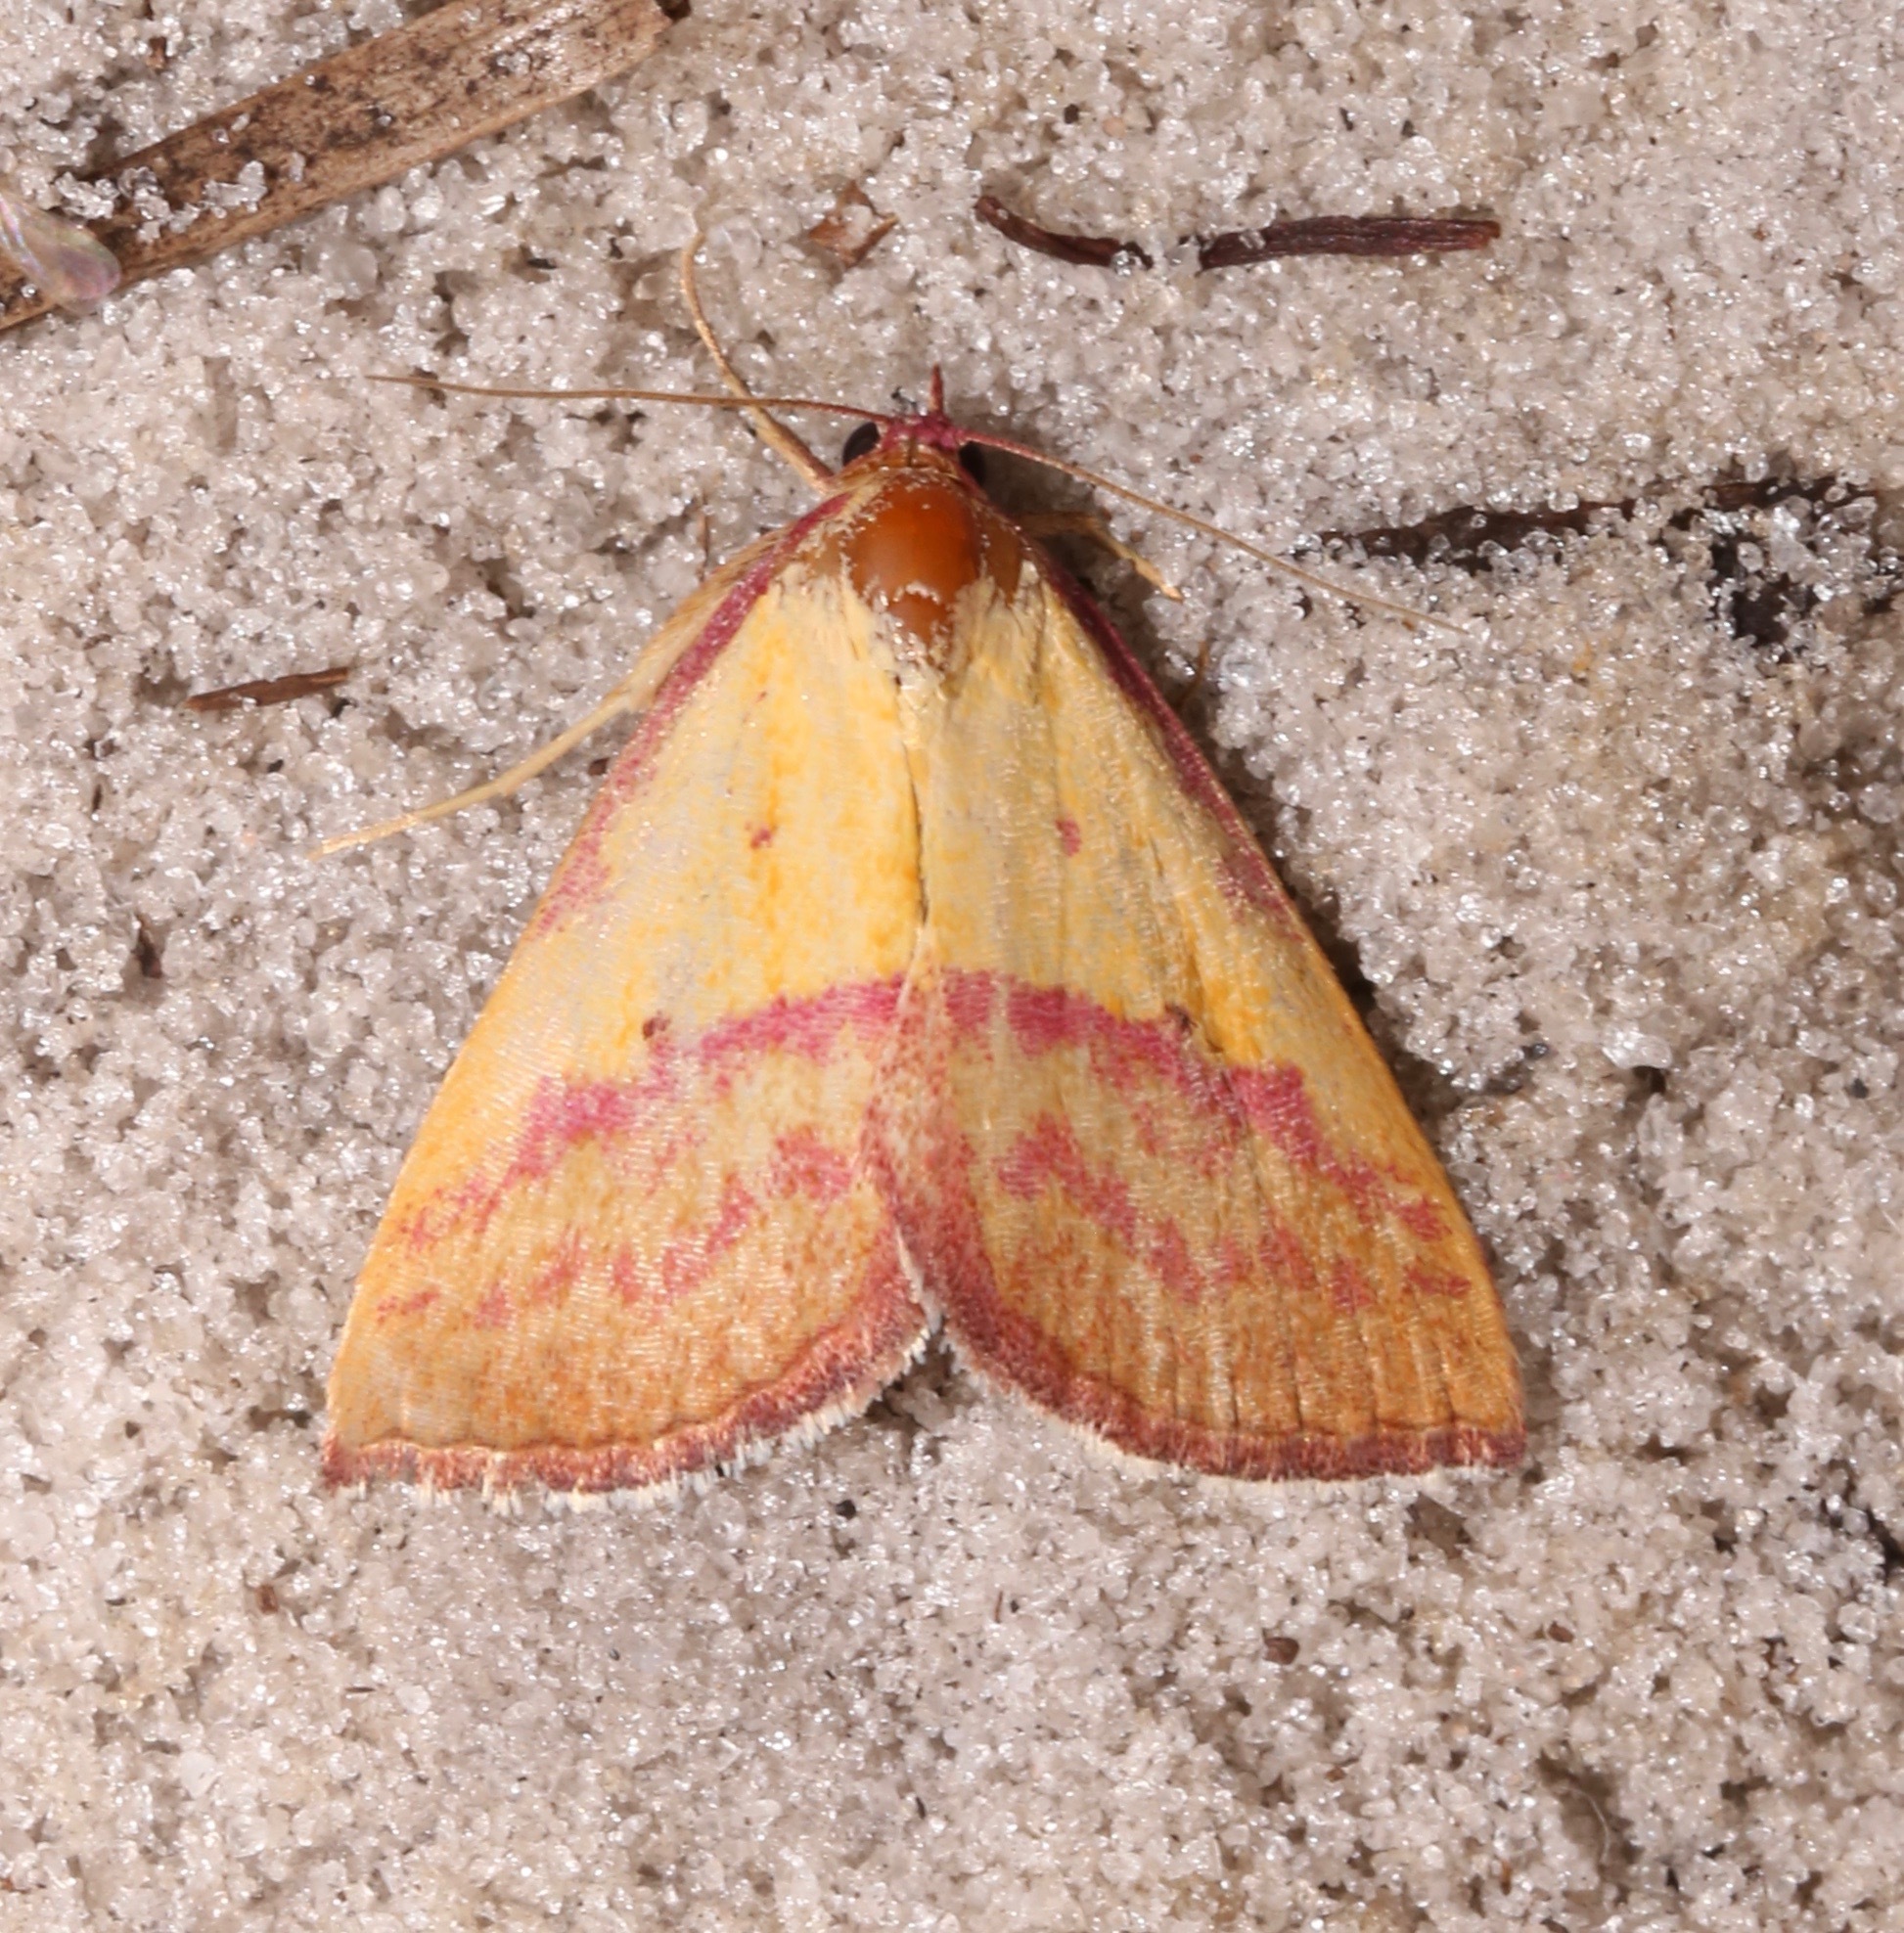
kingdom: Animalia
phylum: Arthropoda
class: Insecta
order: Lepidoptera
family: Erebidae
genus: Phytometra
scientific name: Phytometra rhodarialis
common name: Pink-bordered yellow
